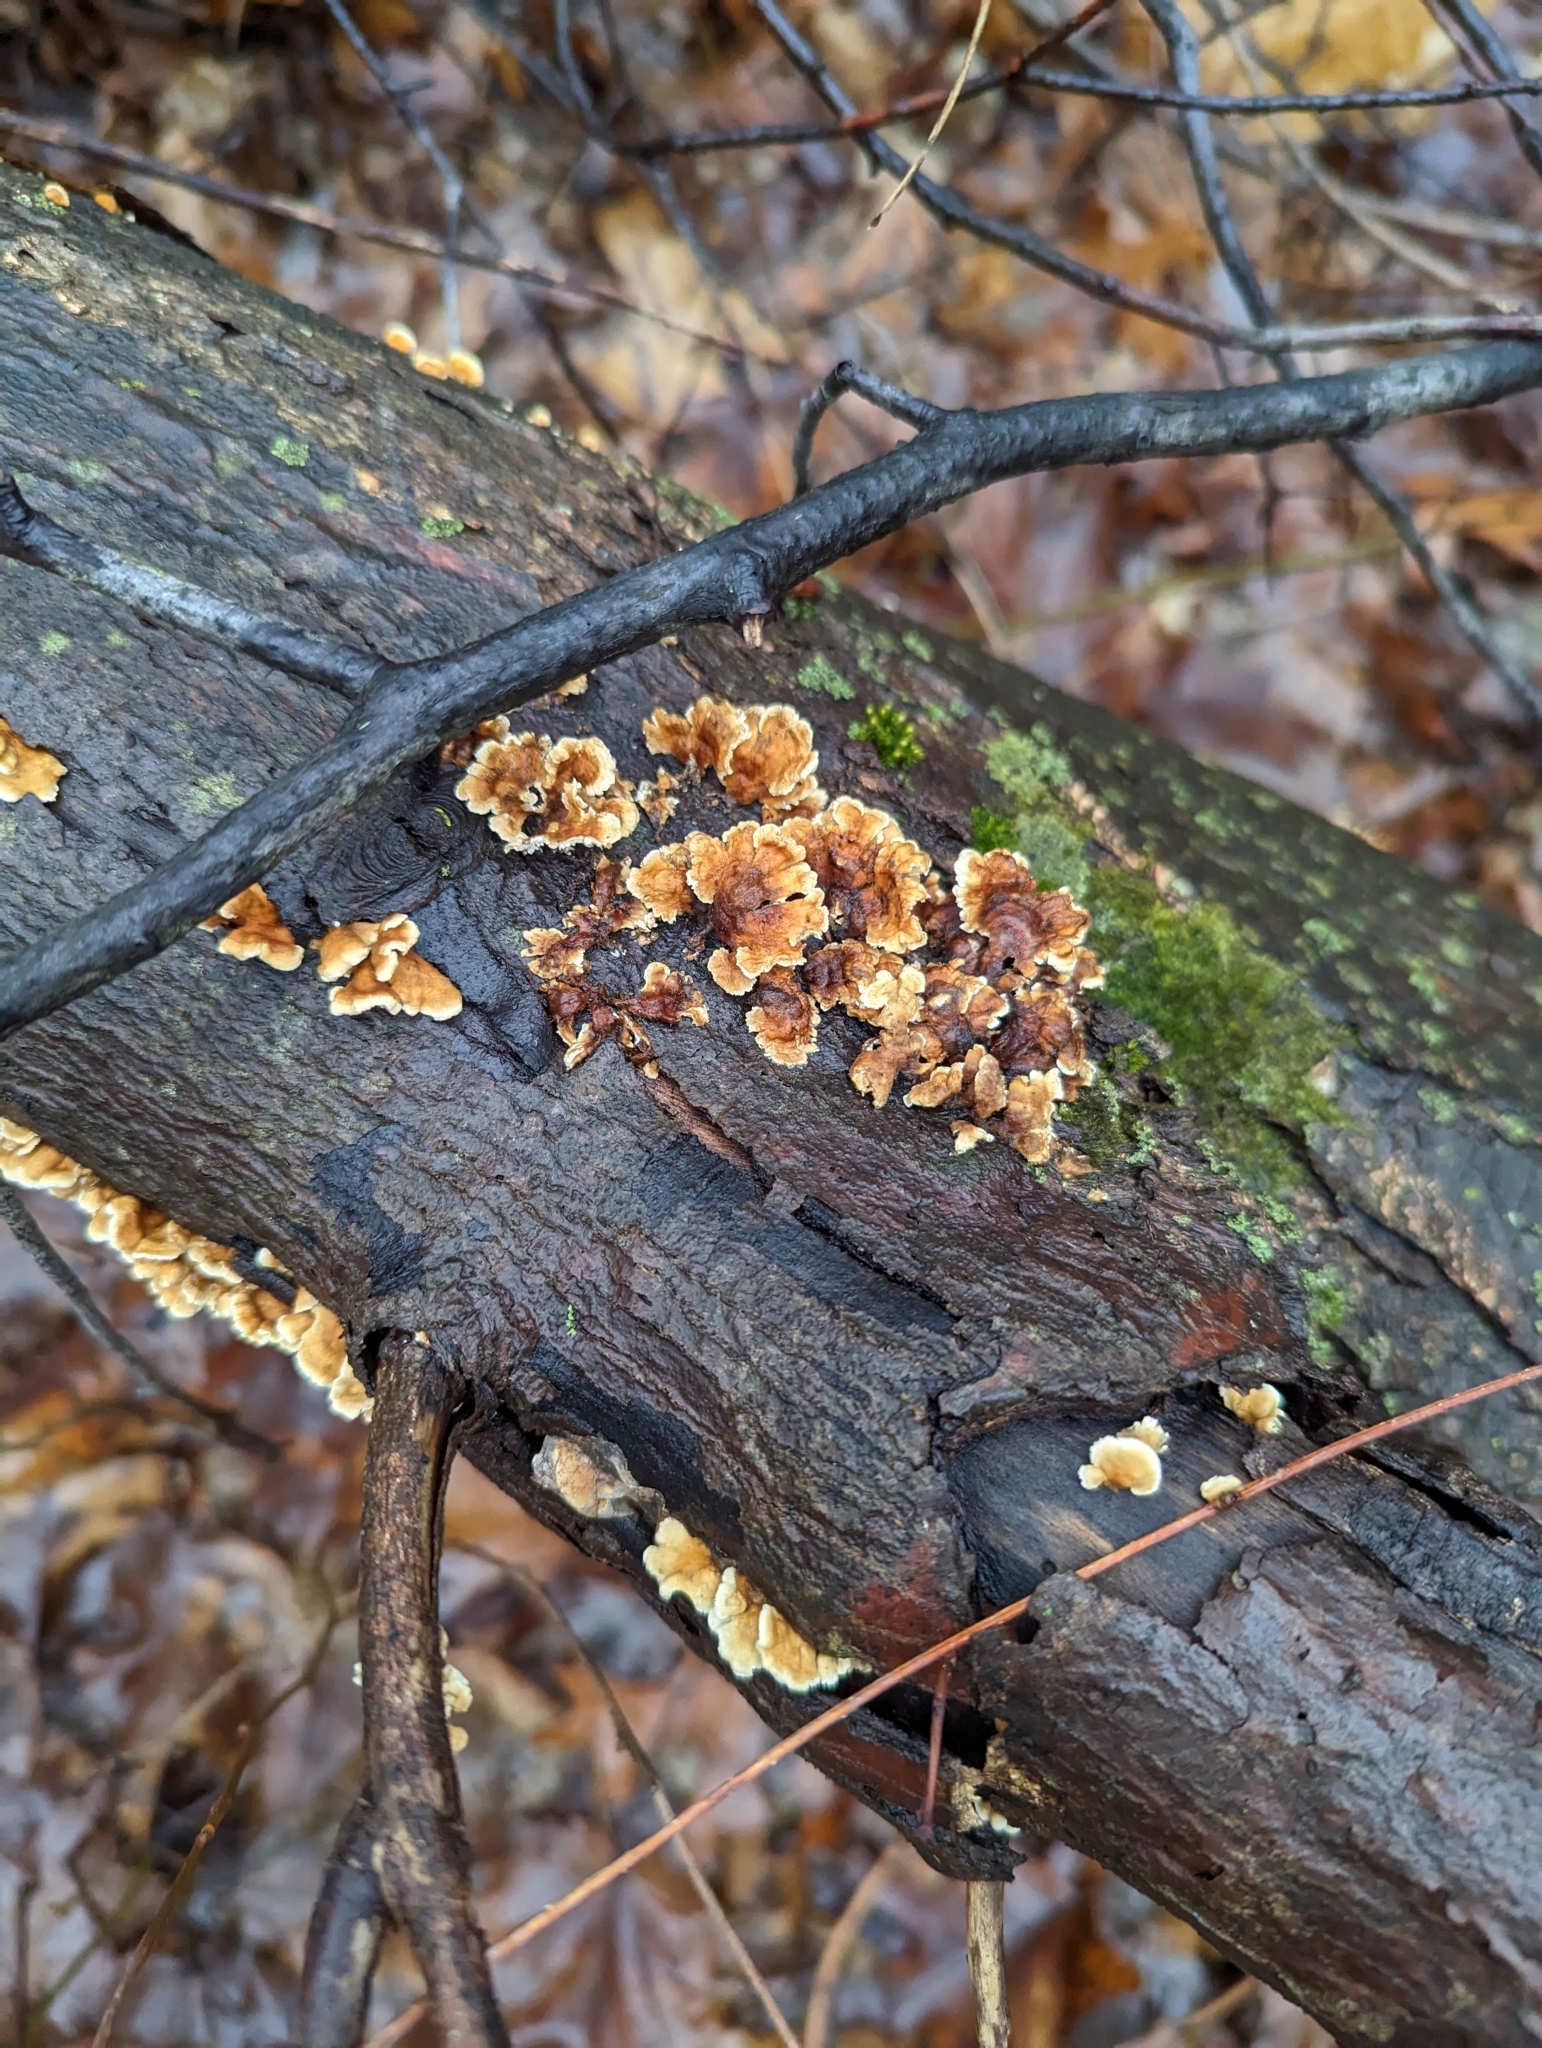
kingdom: Fungi
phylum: Basidiomycota
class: Agaricomycetes
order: Russulales
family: Stereaceae
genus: Stereum
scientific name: Stereum complicatum
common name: Crowded parchment
